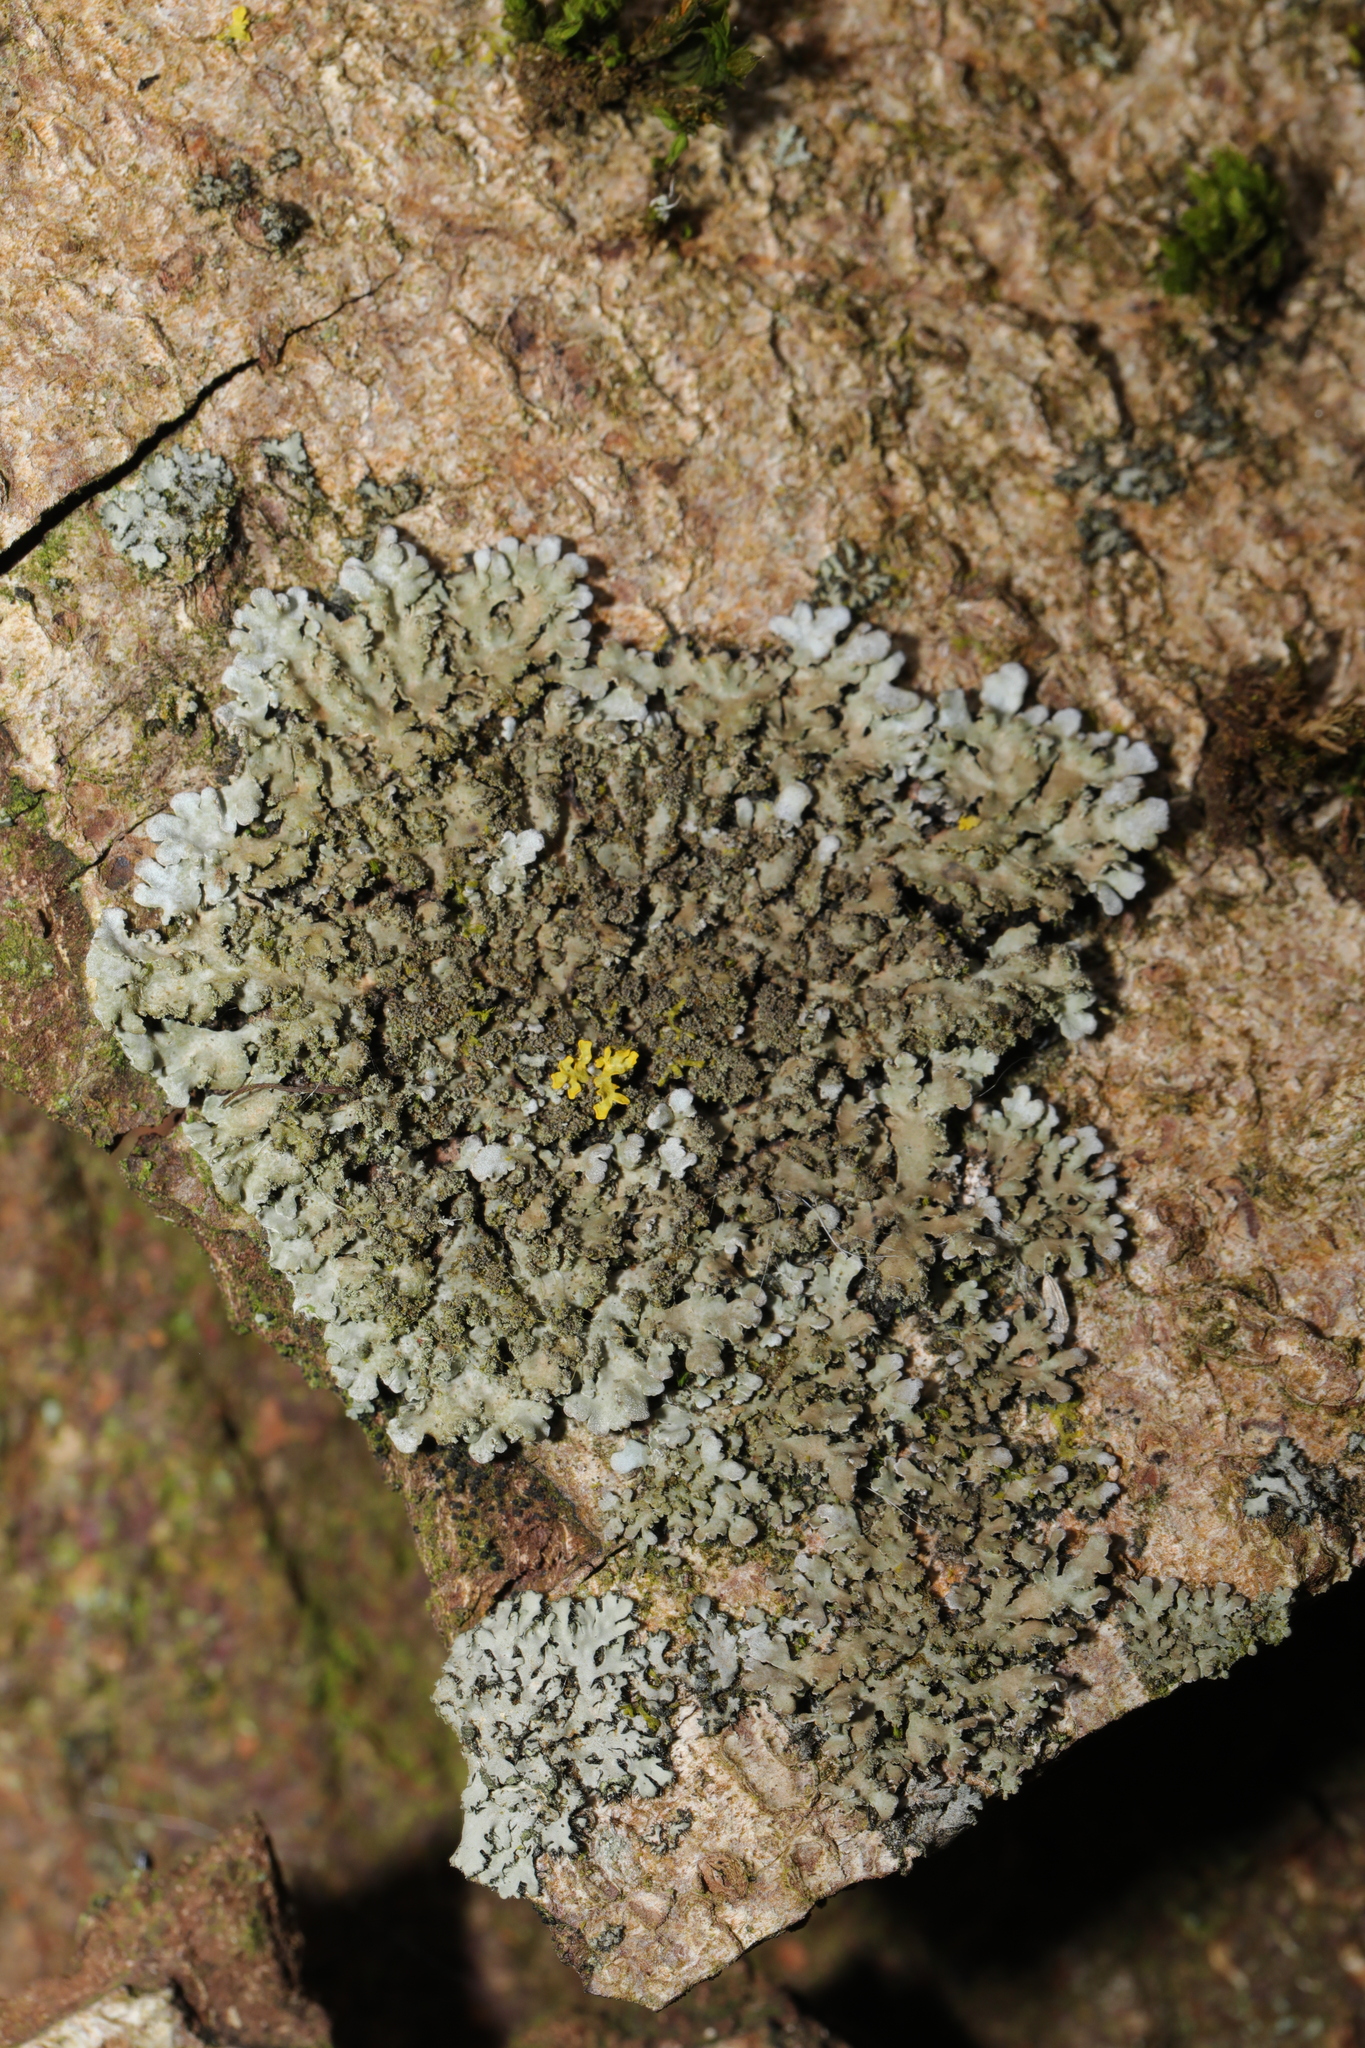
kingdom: Fungi
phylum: Ascomycota
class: Lecanoromycetes
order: Caliciales
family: Physciaceae
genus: Phaeophyscia
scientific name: Phaeophyscia orbicularis
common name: Mealy shadow lichen
